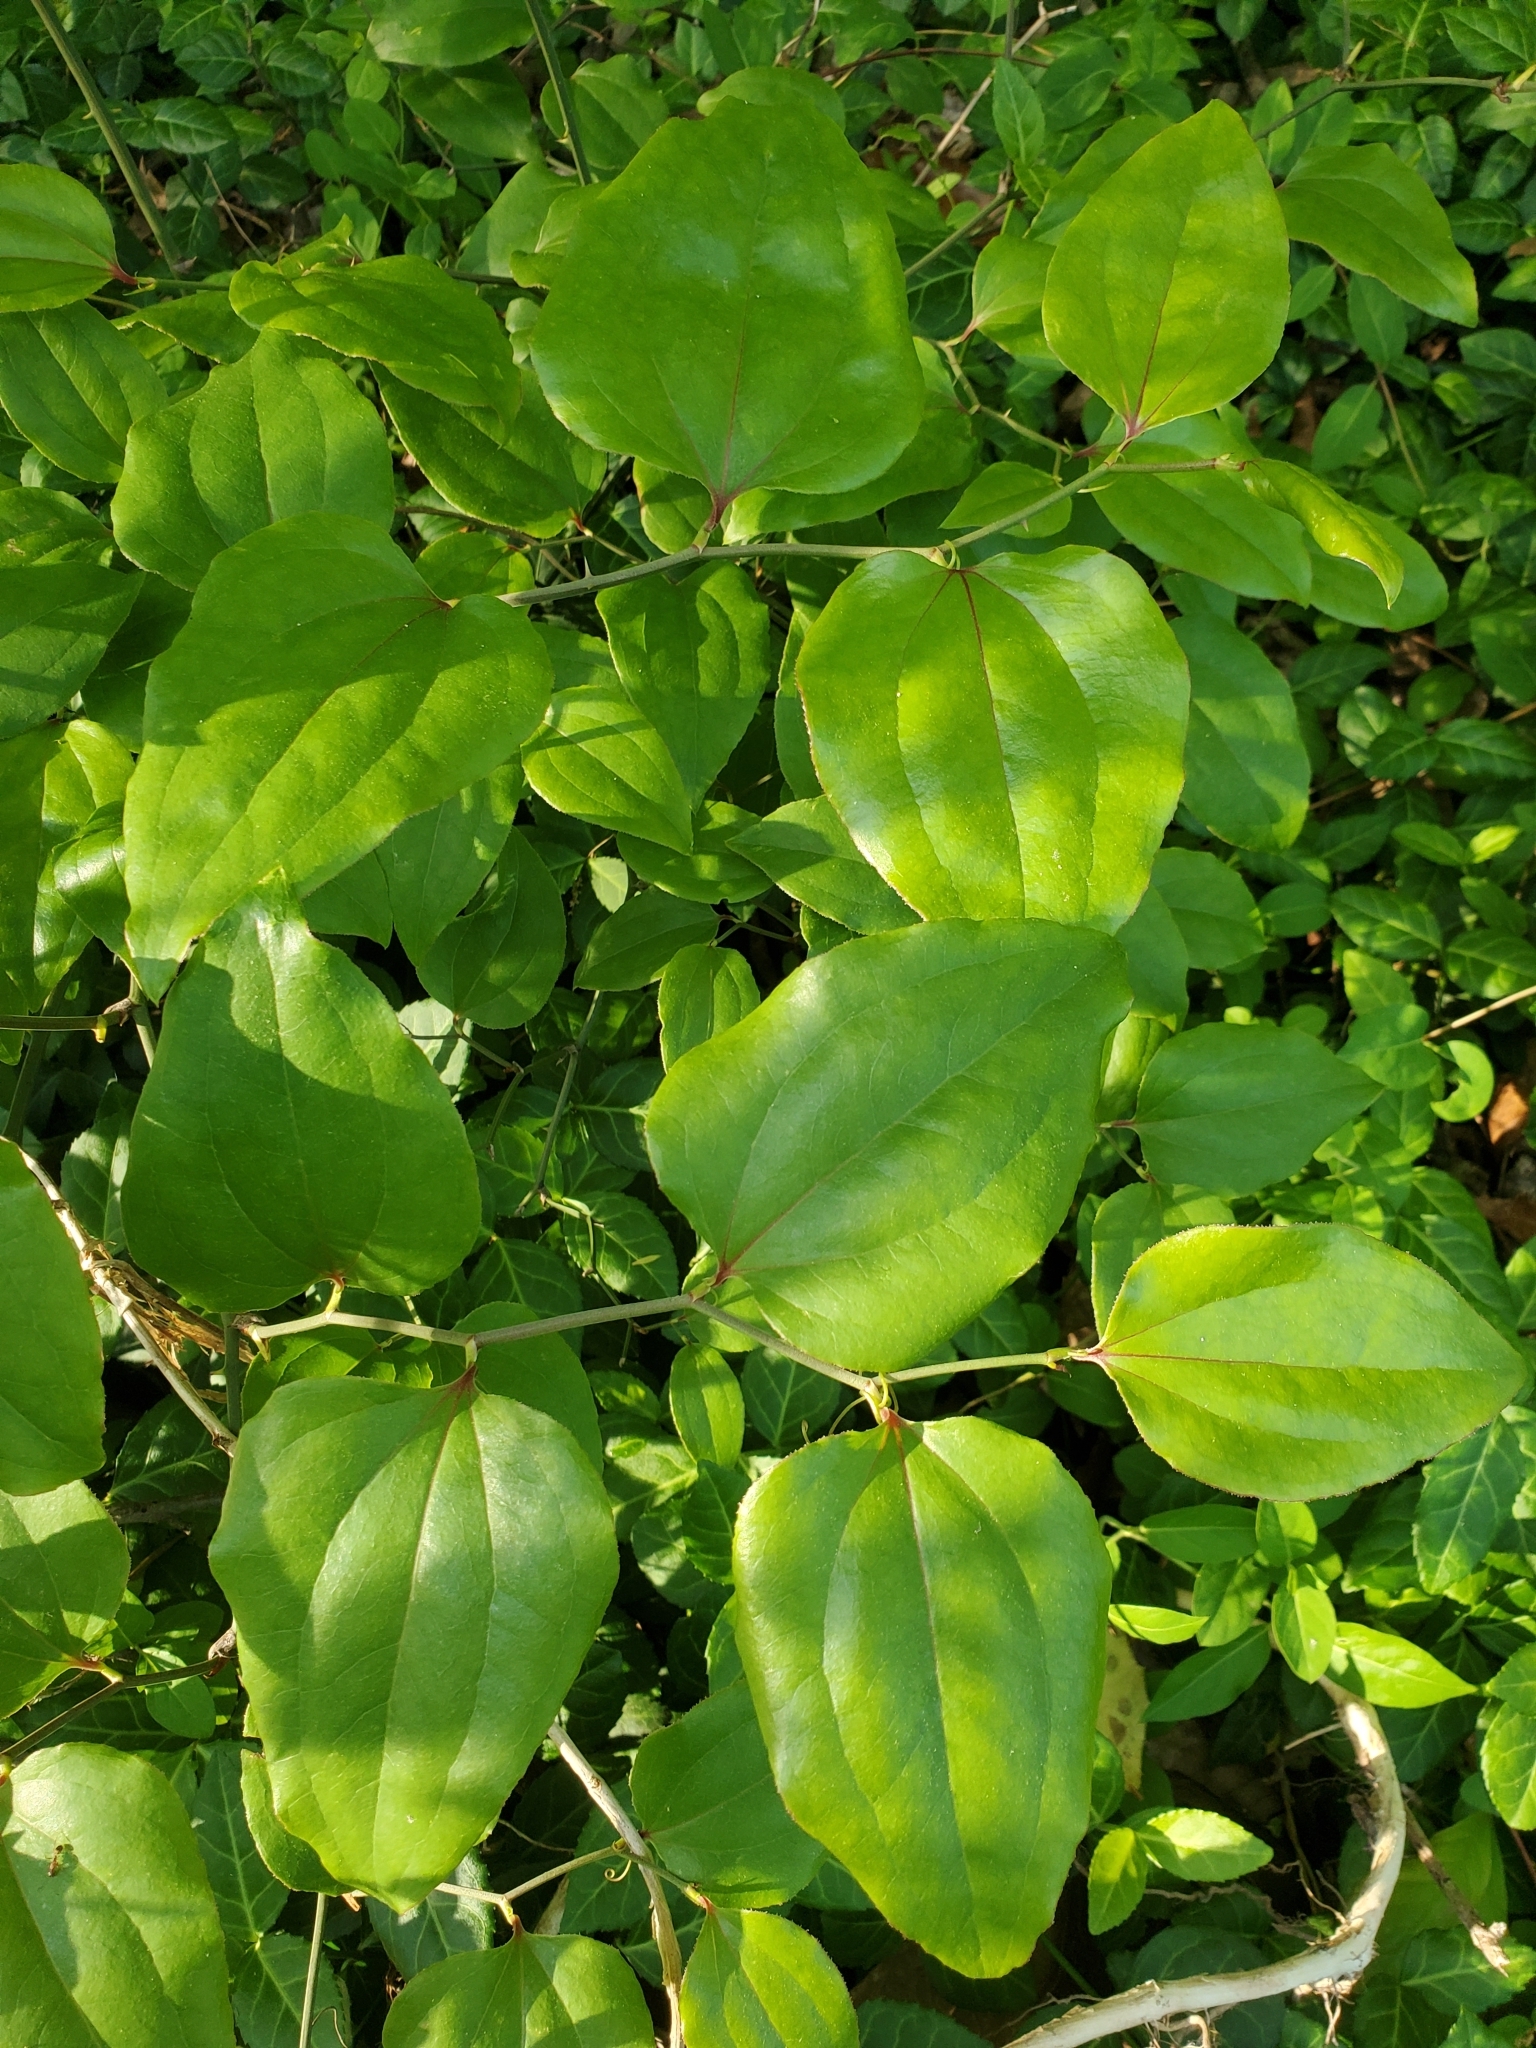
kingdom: Plantae
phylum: Tracheophyta
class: Liliopsida
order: Liliales
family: Smilacaceae
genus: Smilax
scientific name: Smilax rotundifolia
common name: Bullbriar
